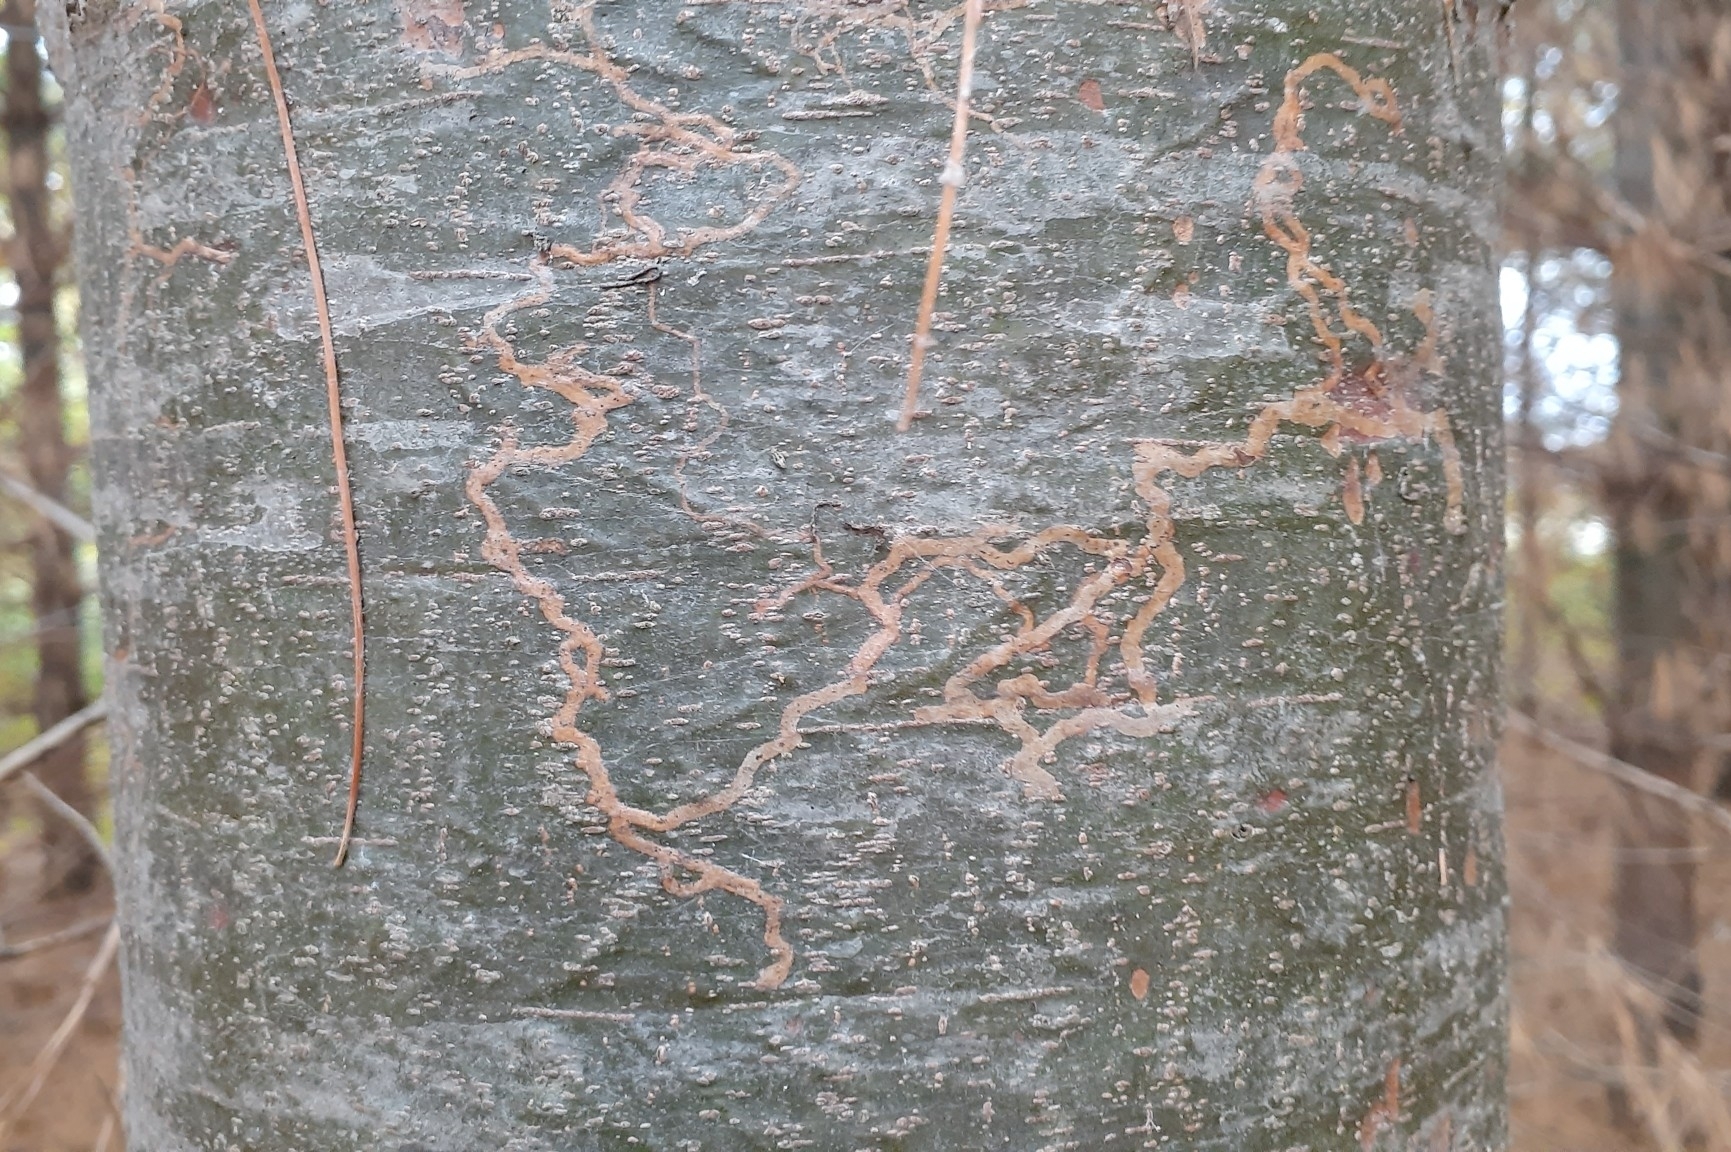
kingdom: Animalia
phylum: Arthropoda
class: Insecta
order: Lepidoptera
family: Gracillariidae
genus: Marmara
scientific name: Marmara fasciella
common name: White pine barkminer moth
